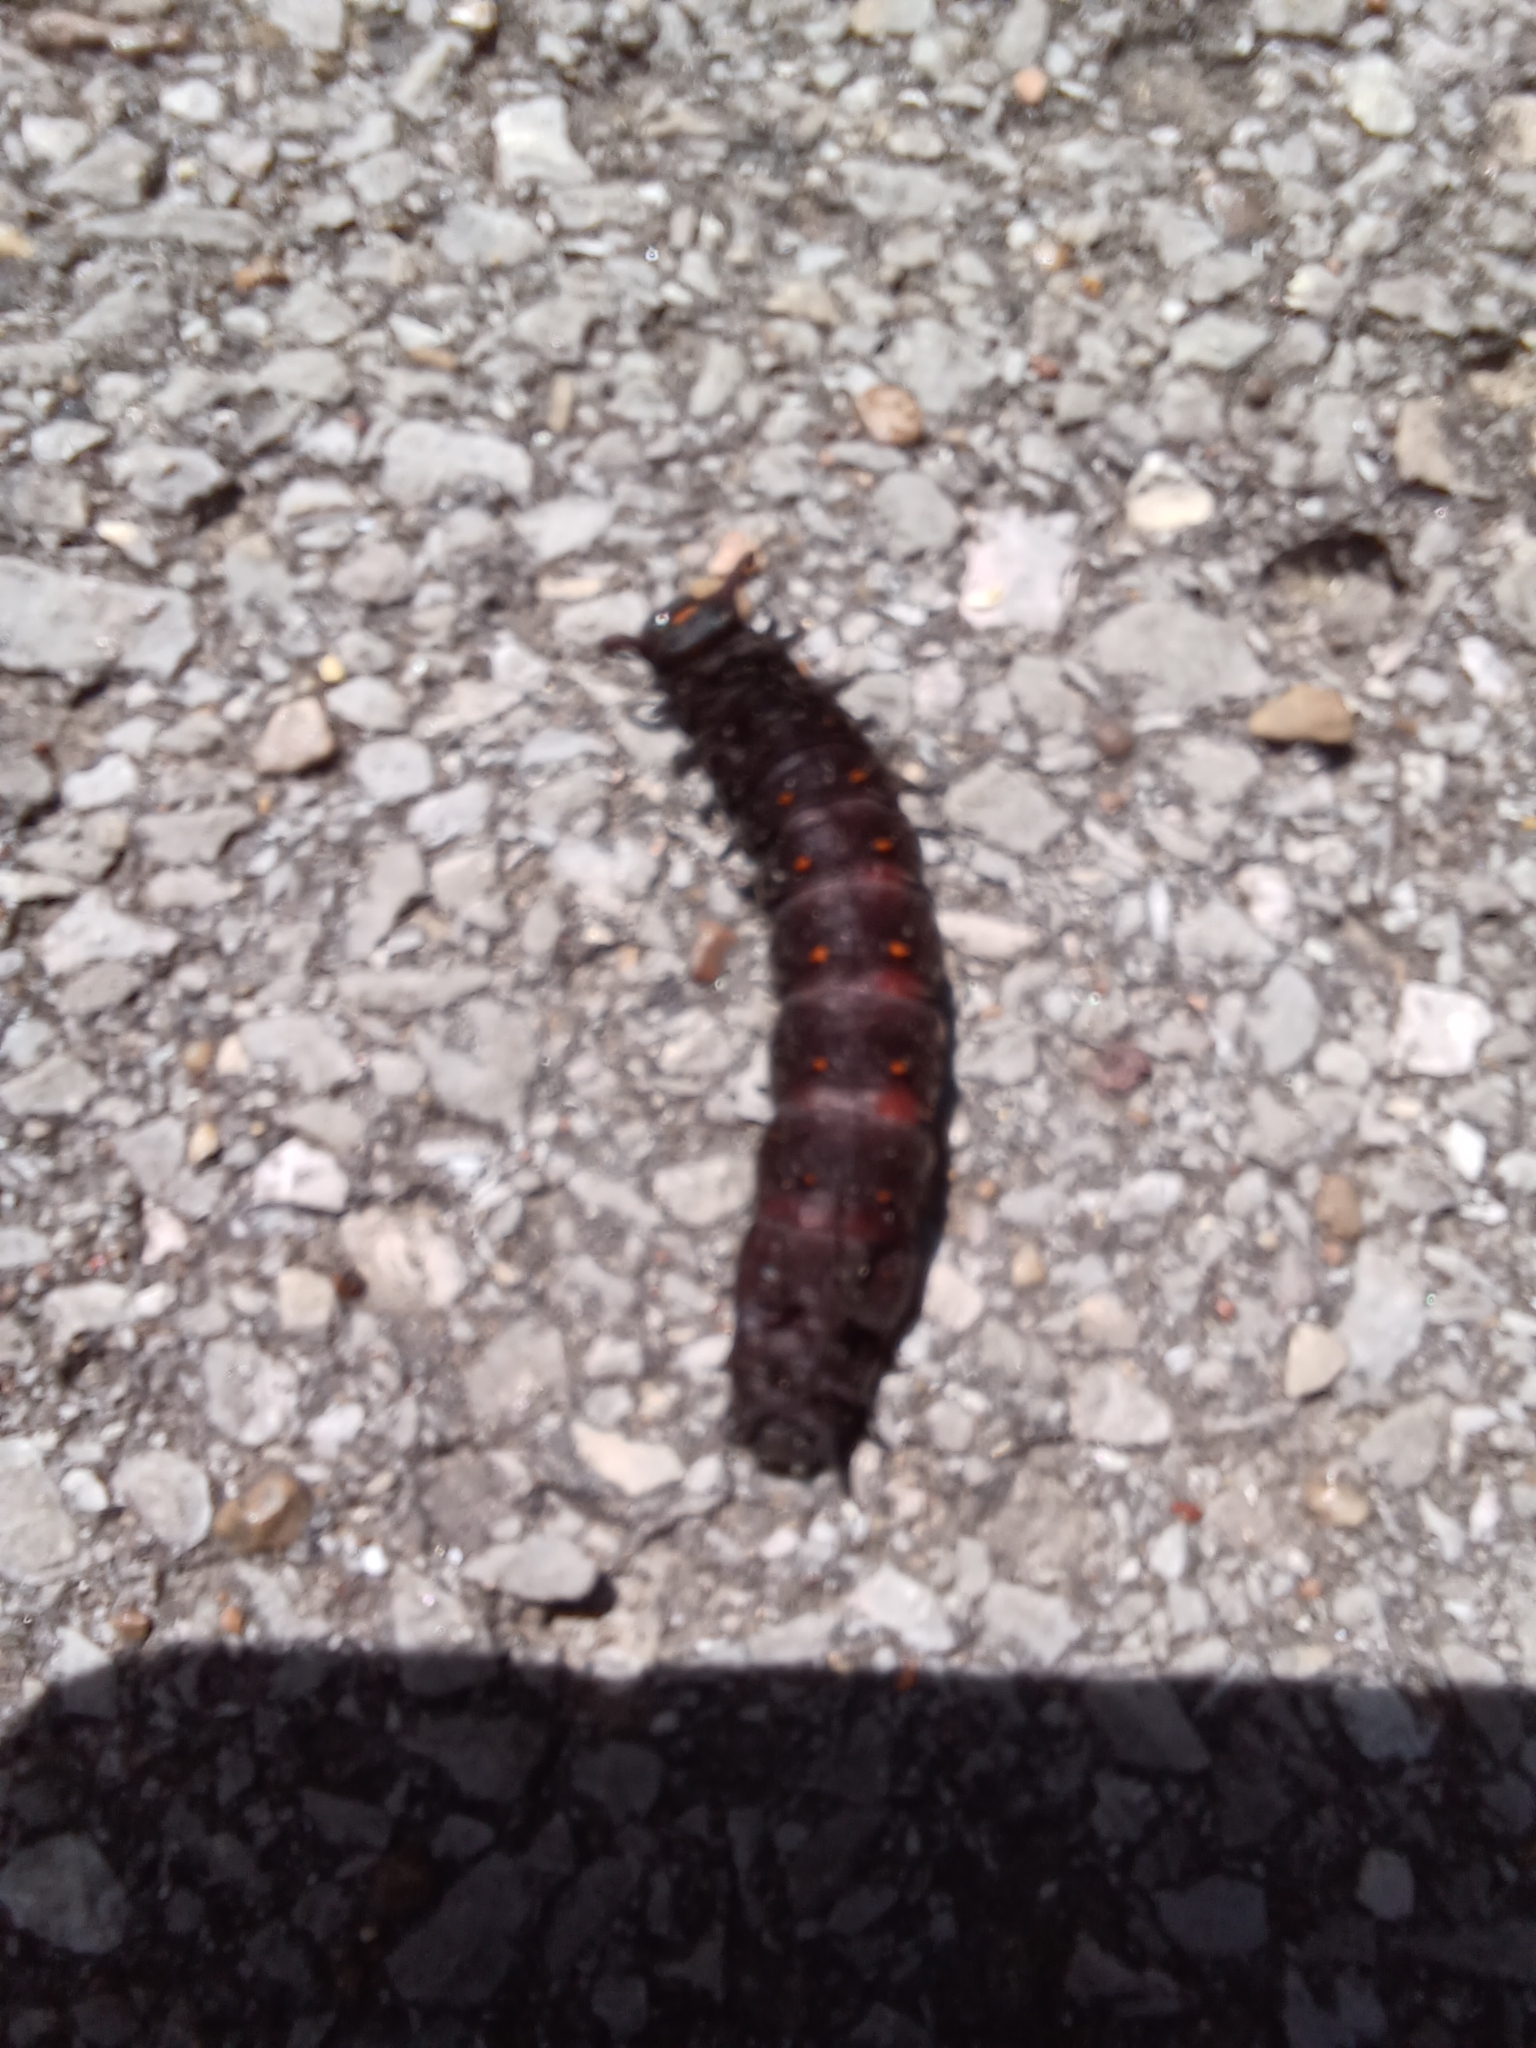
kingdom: Animalia
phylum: Arthropoda
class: Insecta
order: Lepidoptera
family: Papilionidae
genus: Battus
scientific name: Battus philenor
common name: Pipevine swallowtail
